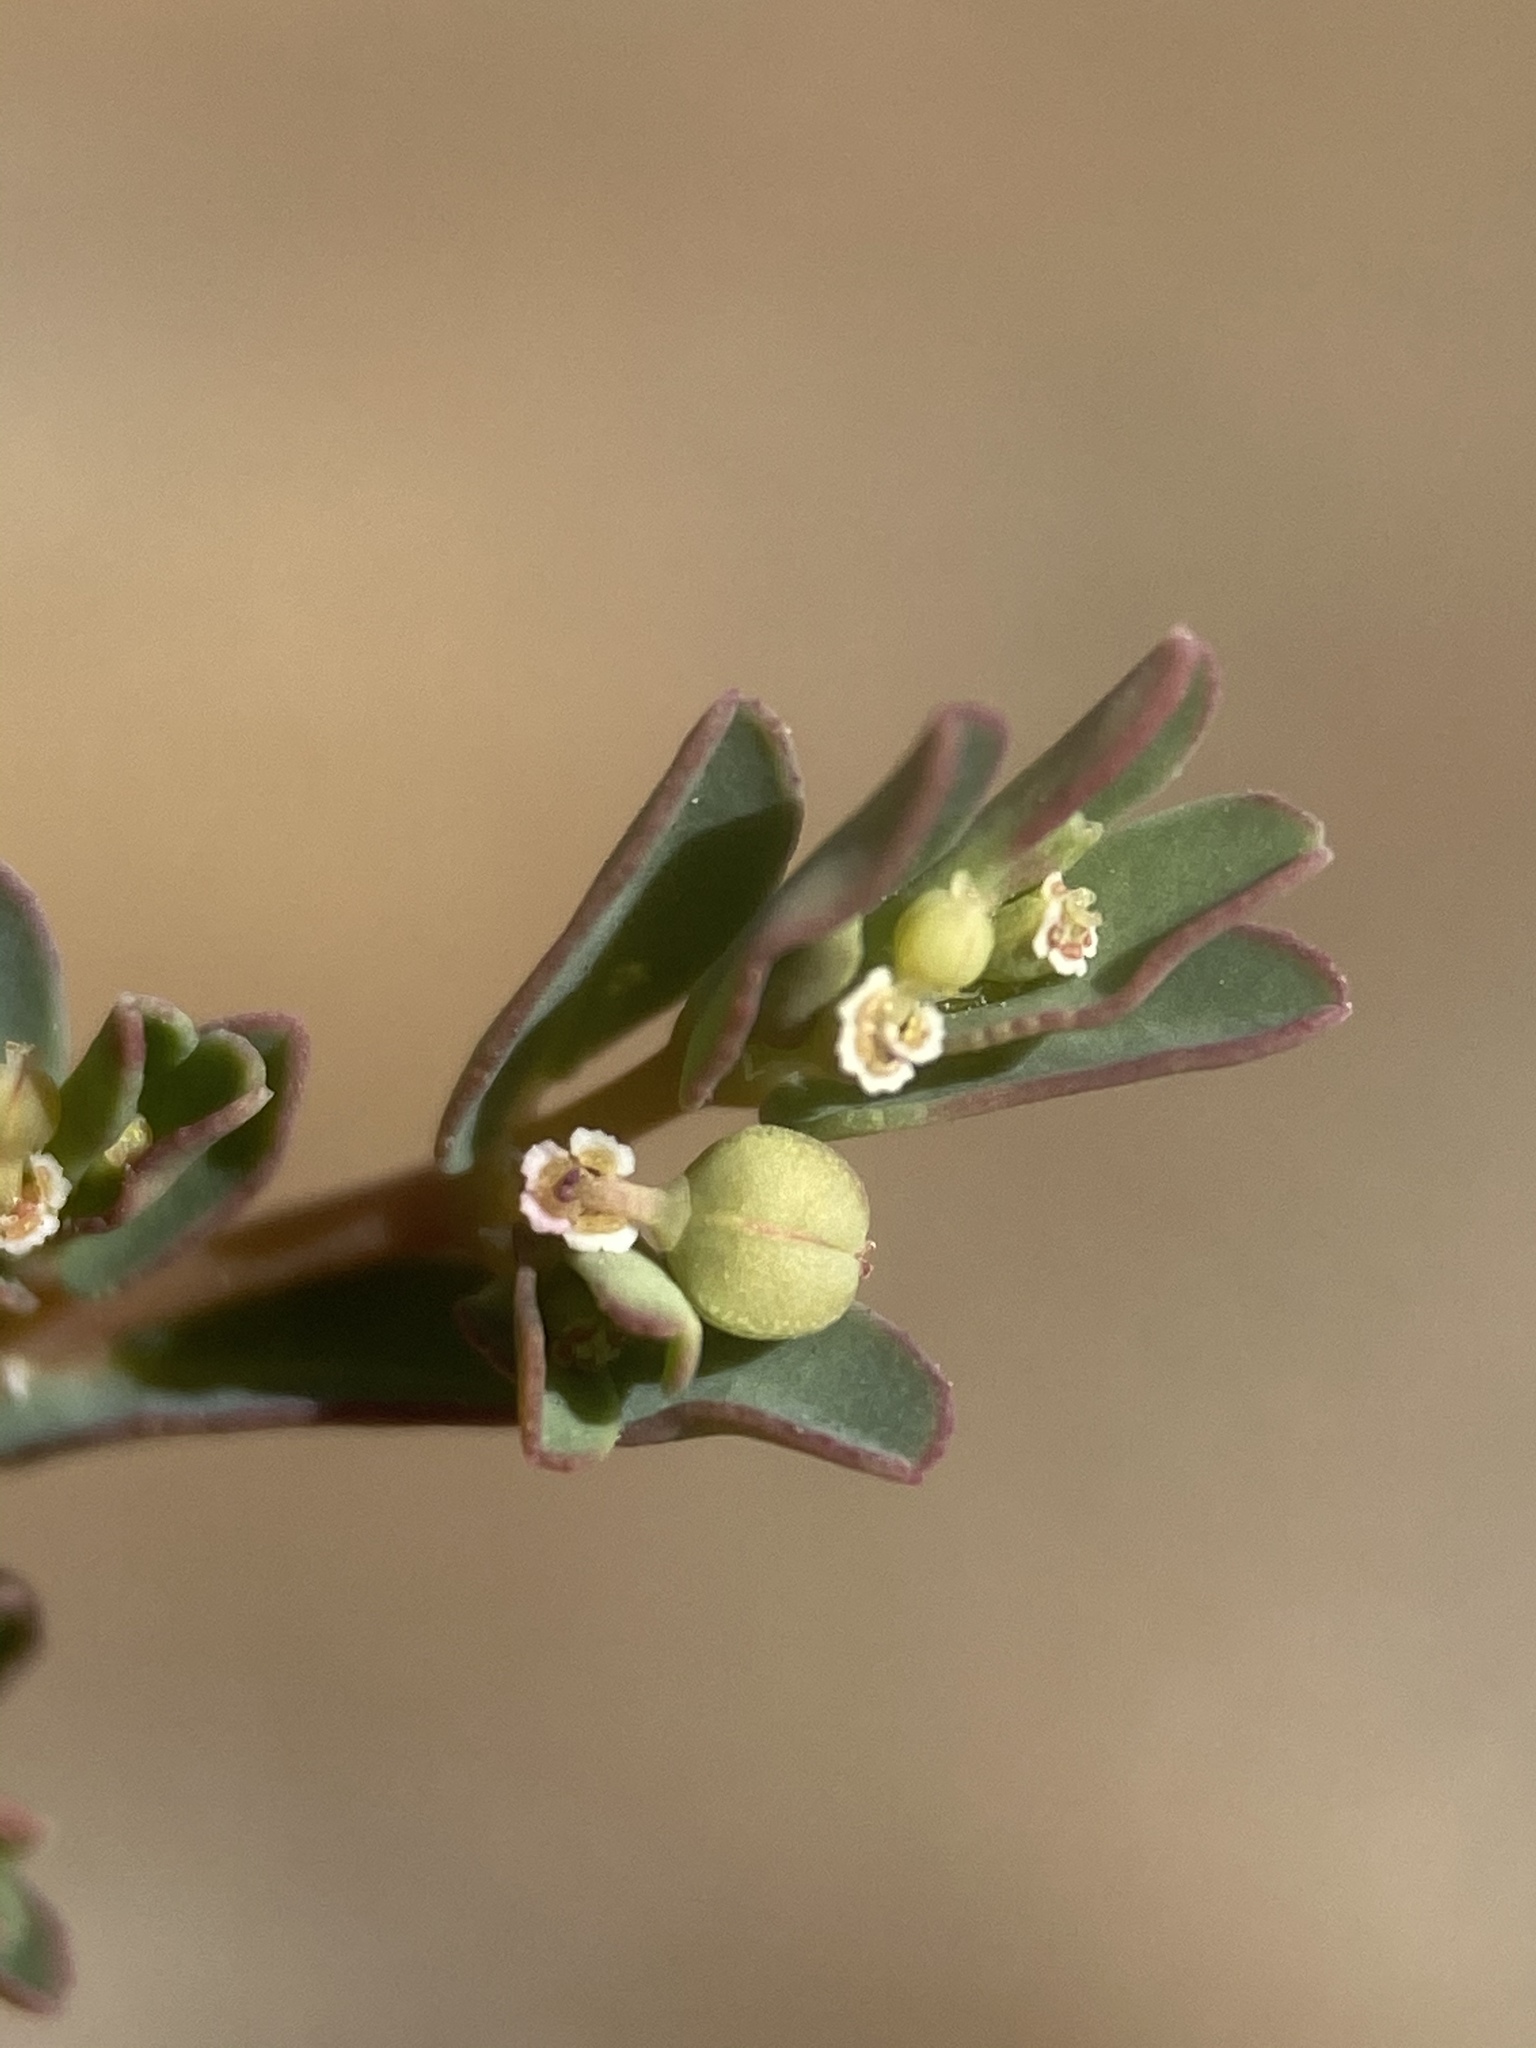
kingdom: Plantae
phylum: Tracheophyta
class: Magnoliopsida
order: Malpighiales
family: Euphorbiaceae
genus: Euphorbia
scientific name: Euphorbia glyptosperma
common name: Corrugate-seeded spurge
